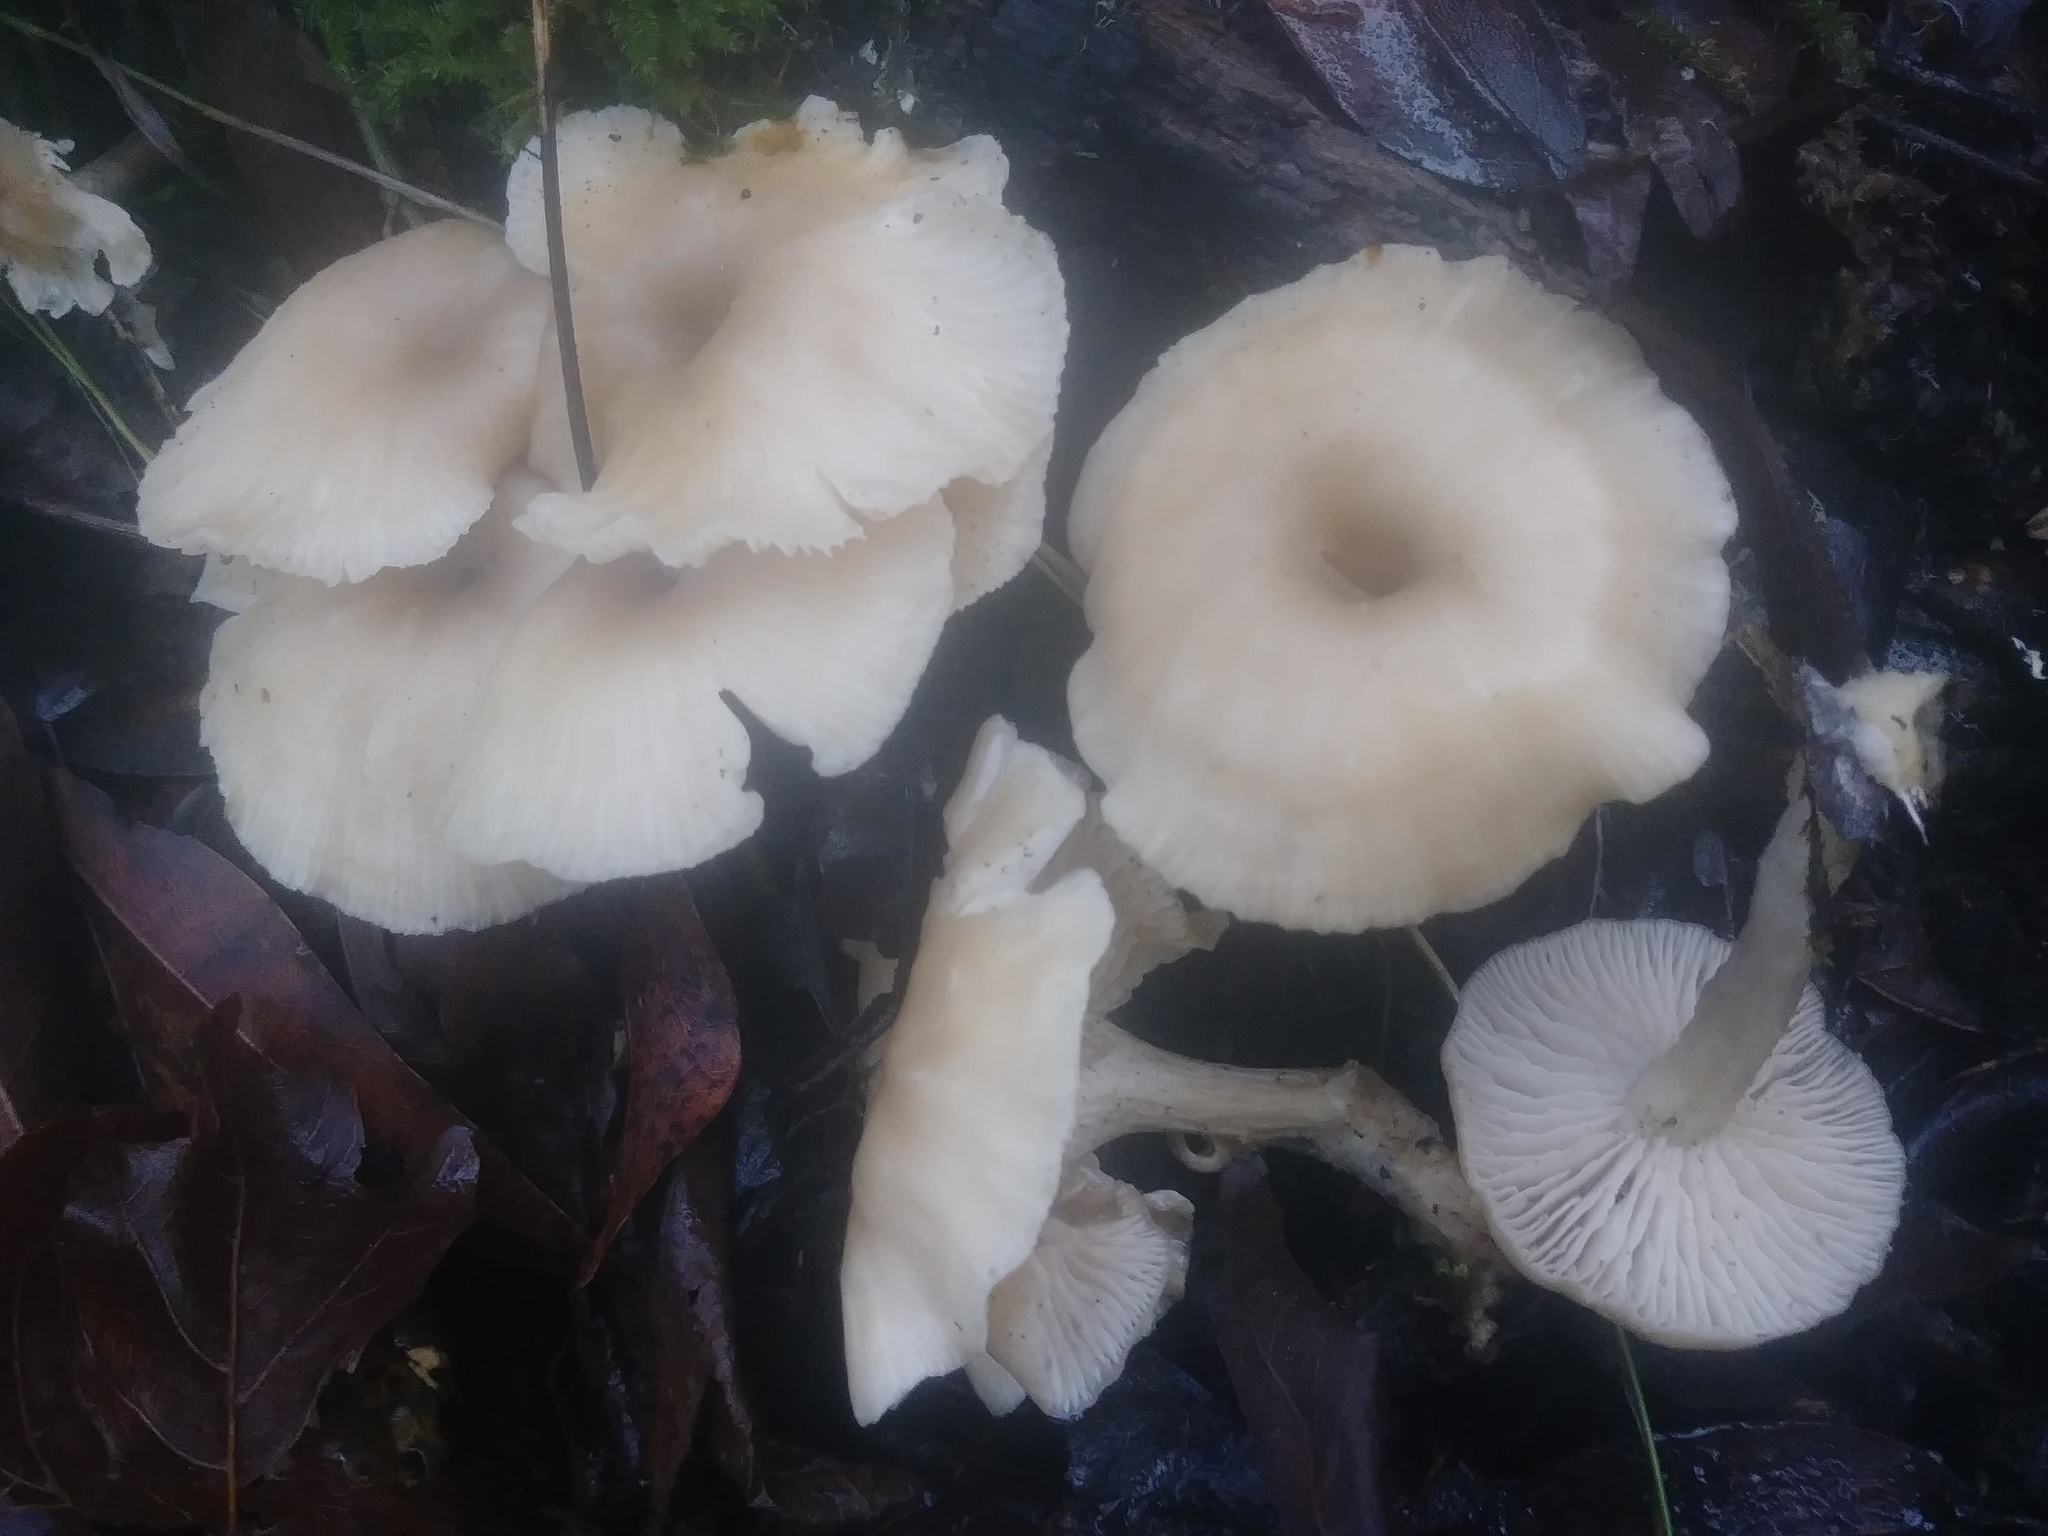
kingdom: Fungi
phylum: Basidiomycota
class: Agaricomycetes
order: Agaricales
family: Tricholomataceae
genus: Clitocybe
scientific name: Clitocybe fragrans
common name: Fragrant funnel
